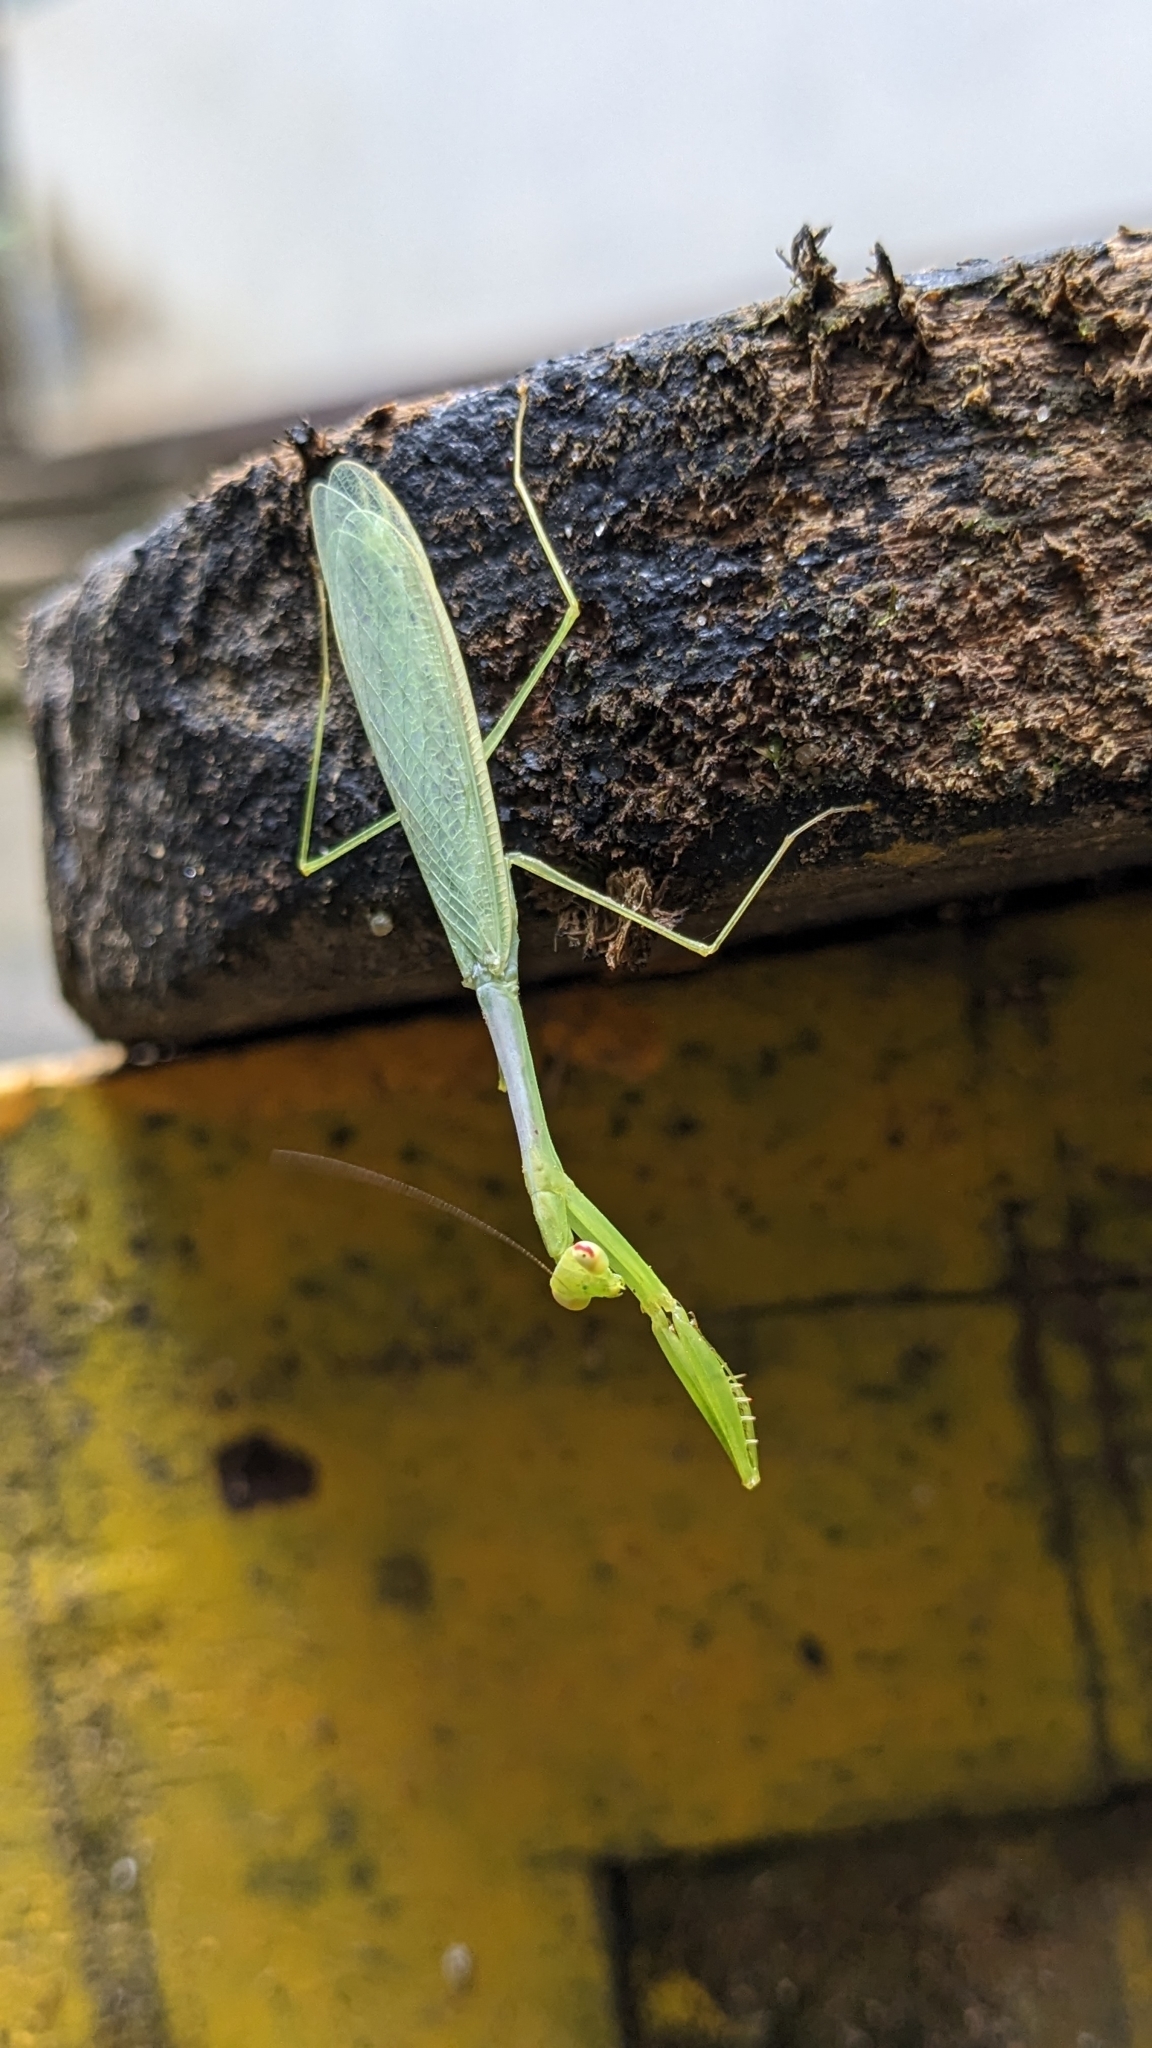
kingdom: Animalia
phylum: Arthropoda
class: Insecta
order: Mantodea
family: Leptomantellidae
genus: Leptomantella
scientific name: Leptomantella parva
